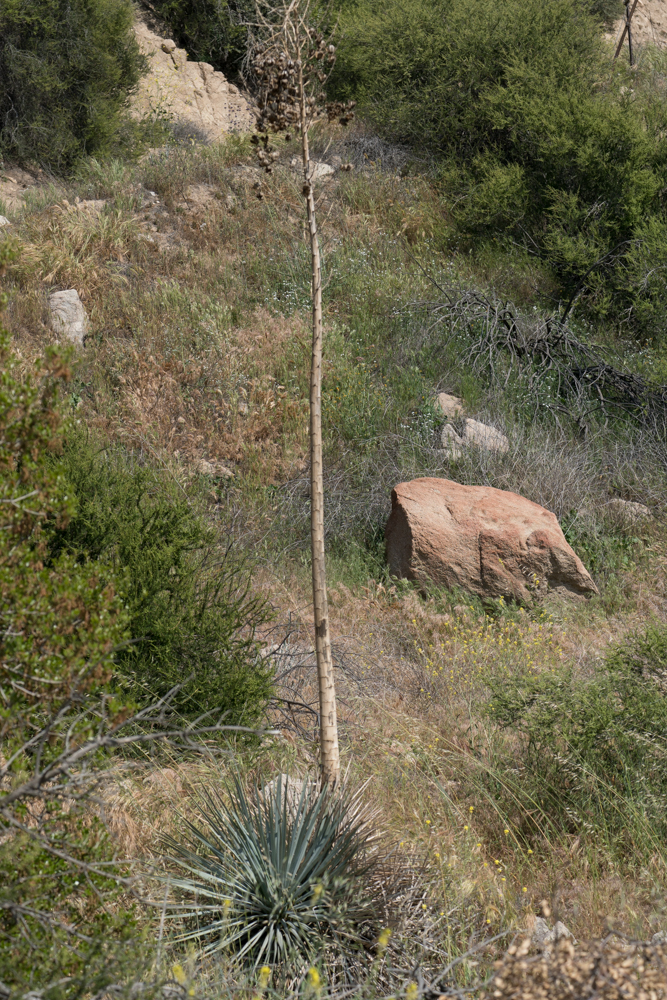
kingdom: Plantae
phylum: Tracheophyta
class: Liliopsida
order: Asparagales
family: Asparagaceae
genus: Hesperoyucca
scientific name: Hesperoyucca whipplei
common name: Our lord's-candle
